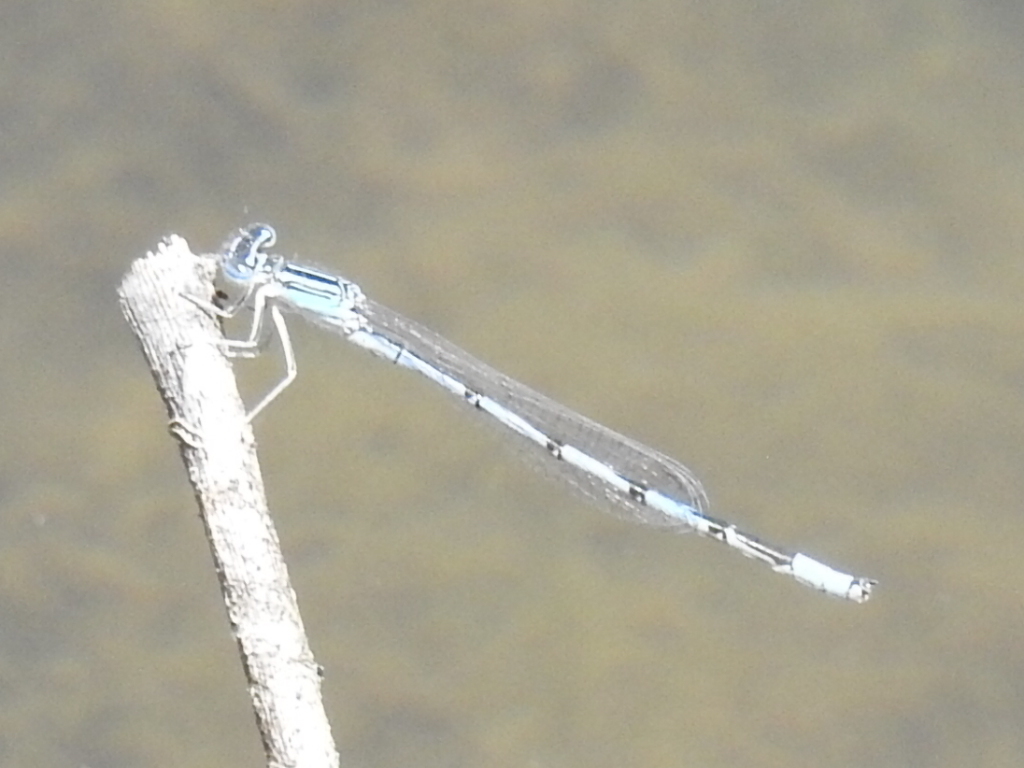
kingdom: Animalia
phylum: Arthropoda
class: Insecta
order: Odonata
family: Coenagrionidae
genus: Enallagma
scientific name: Enallagma basidens
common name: Double-striped bluet
